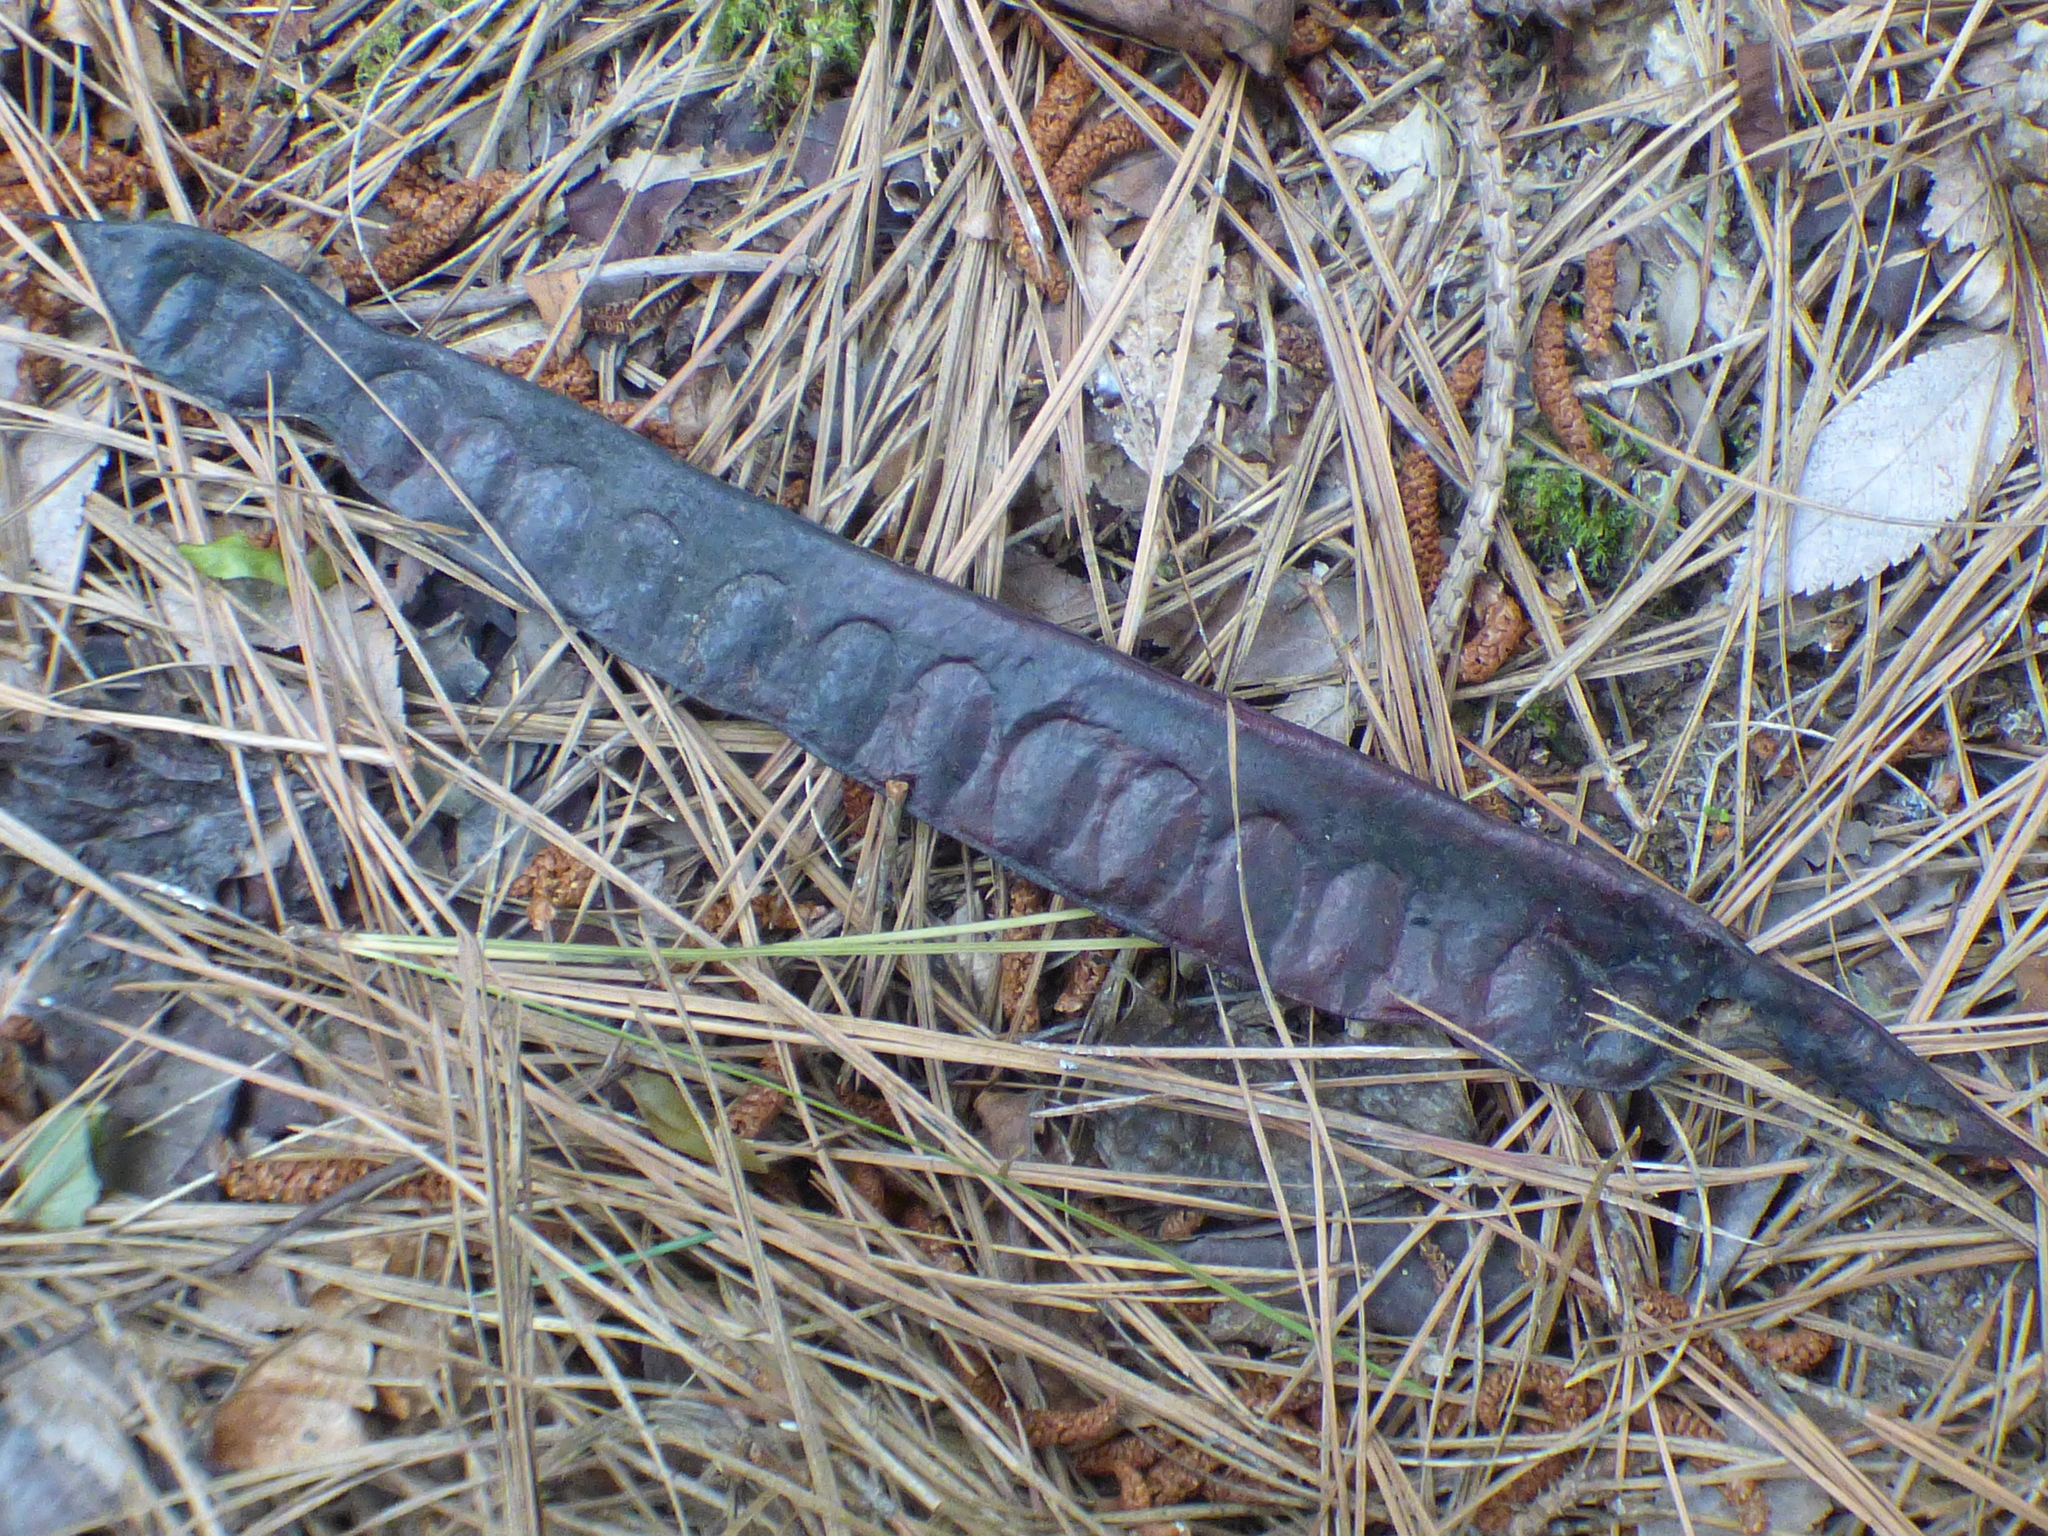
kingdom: Plantae
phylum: Tracheophyta
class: Magnoliopsida
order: Fabales
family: Fabaceae
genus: Gleditsia
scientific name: Gleditsia triacanthos
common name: Common honeylocust
